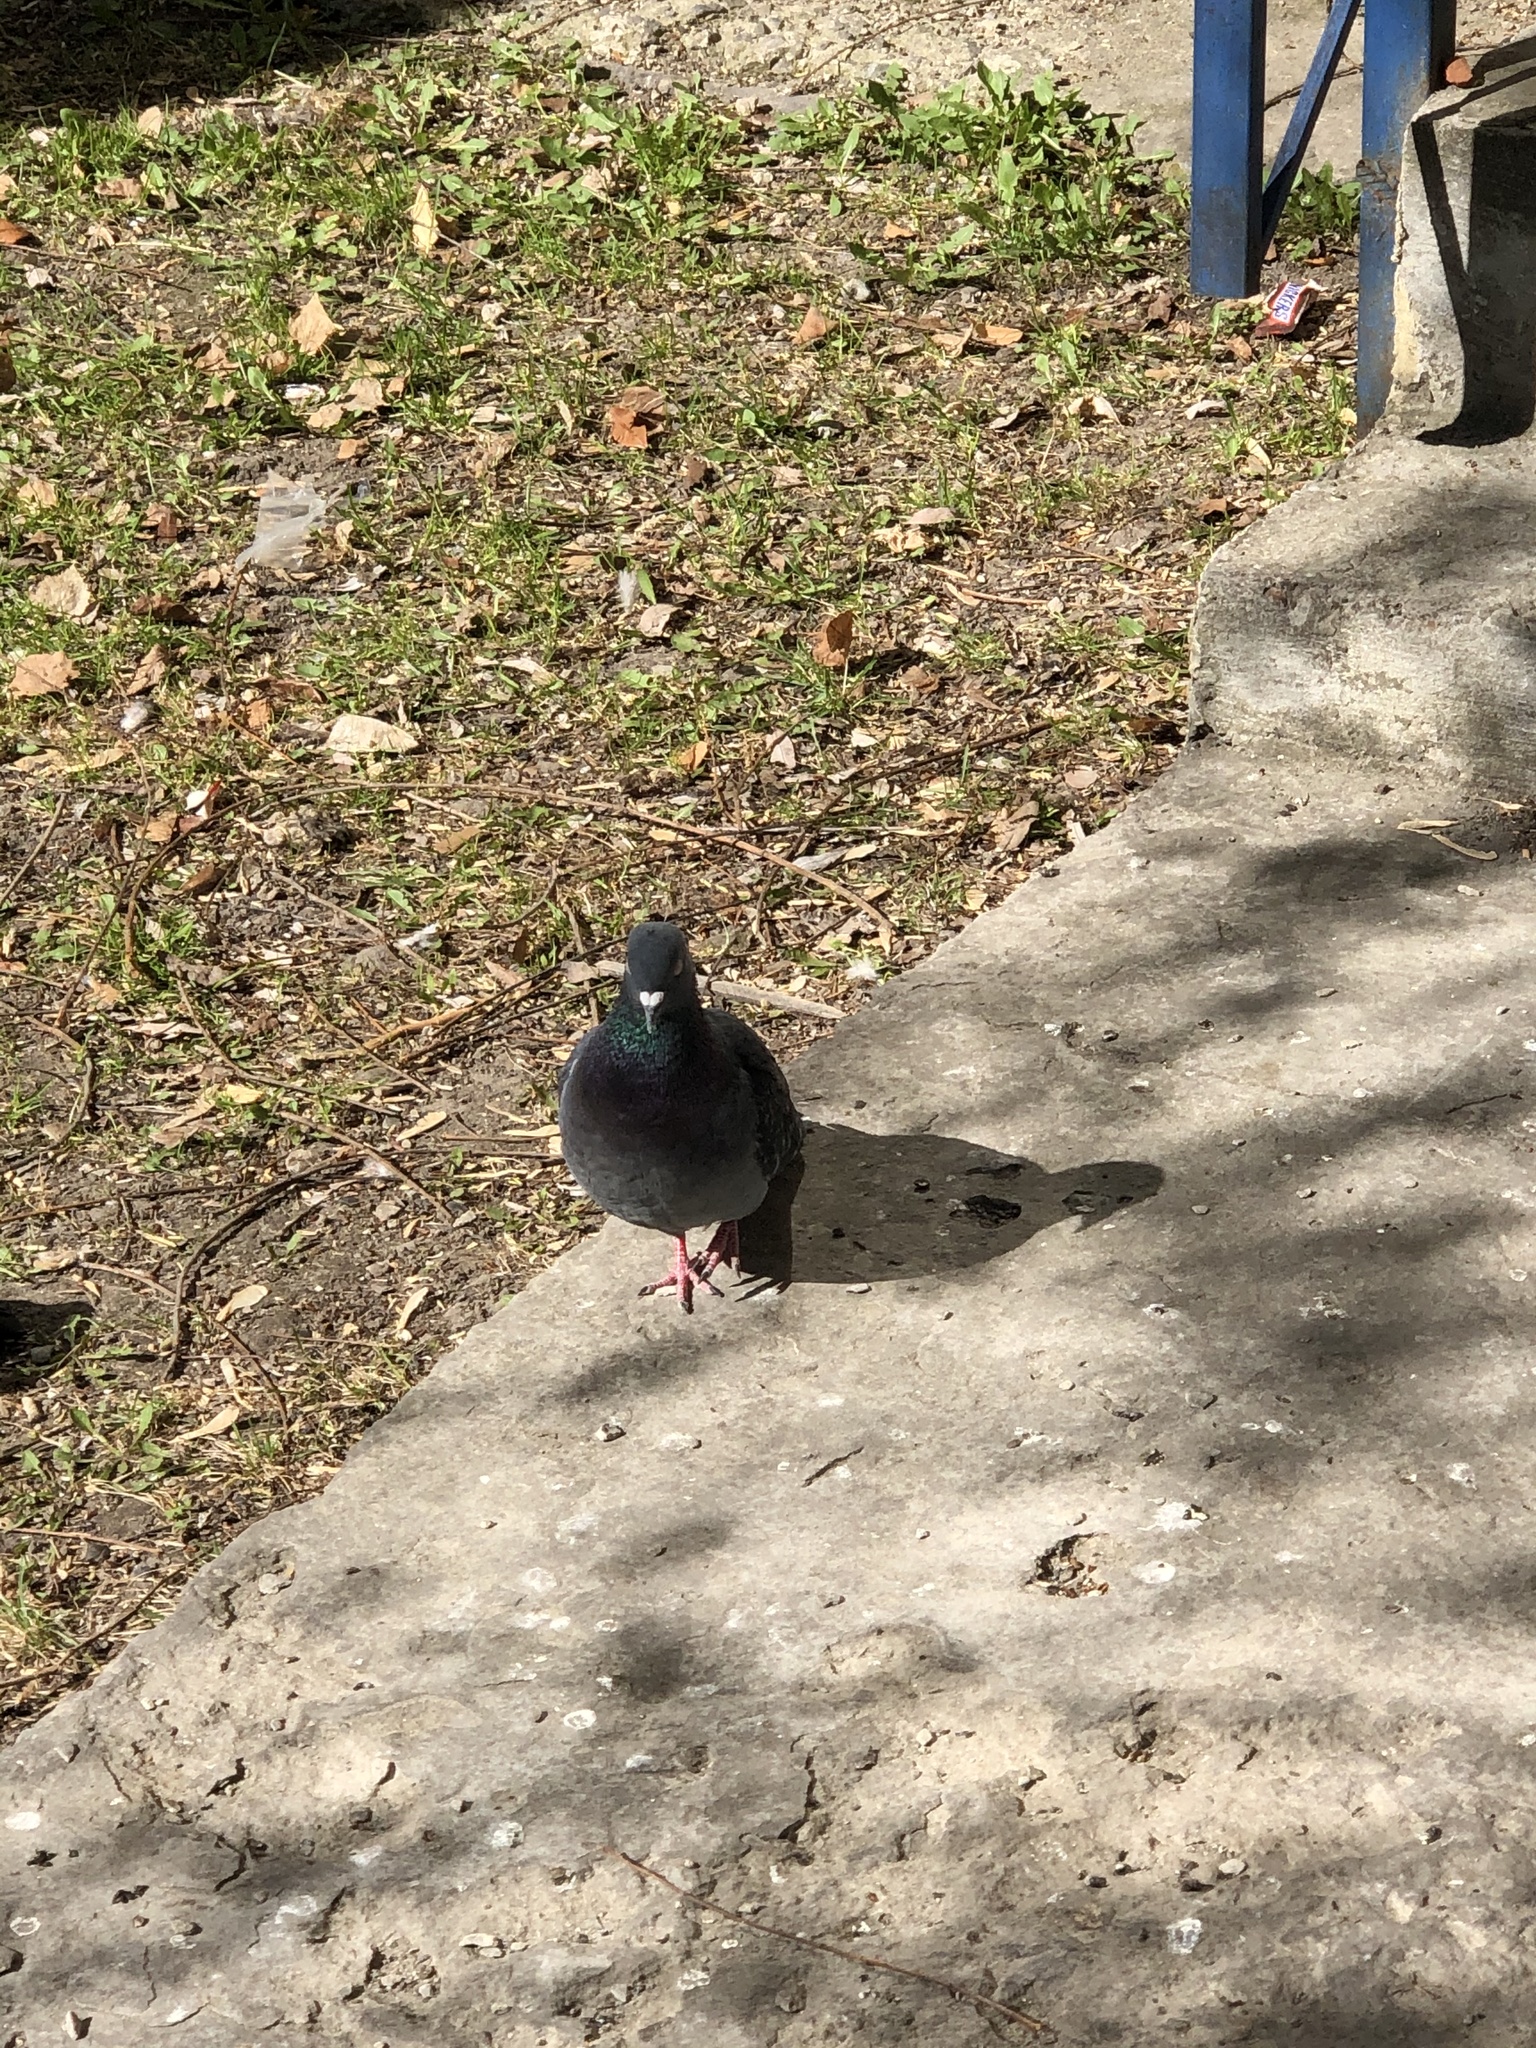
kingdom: Animalia
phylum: Chordata
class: Aves
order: Columbiformes
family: Columbidae
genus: Columba
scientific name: Columba livia
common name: Rock pigeon
